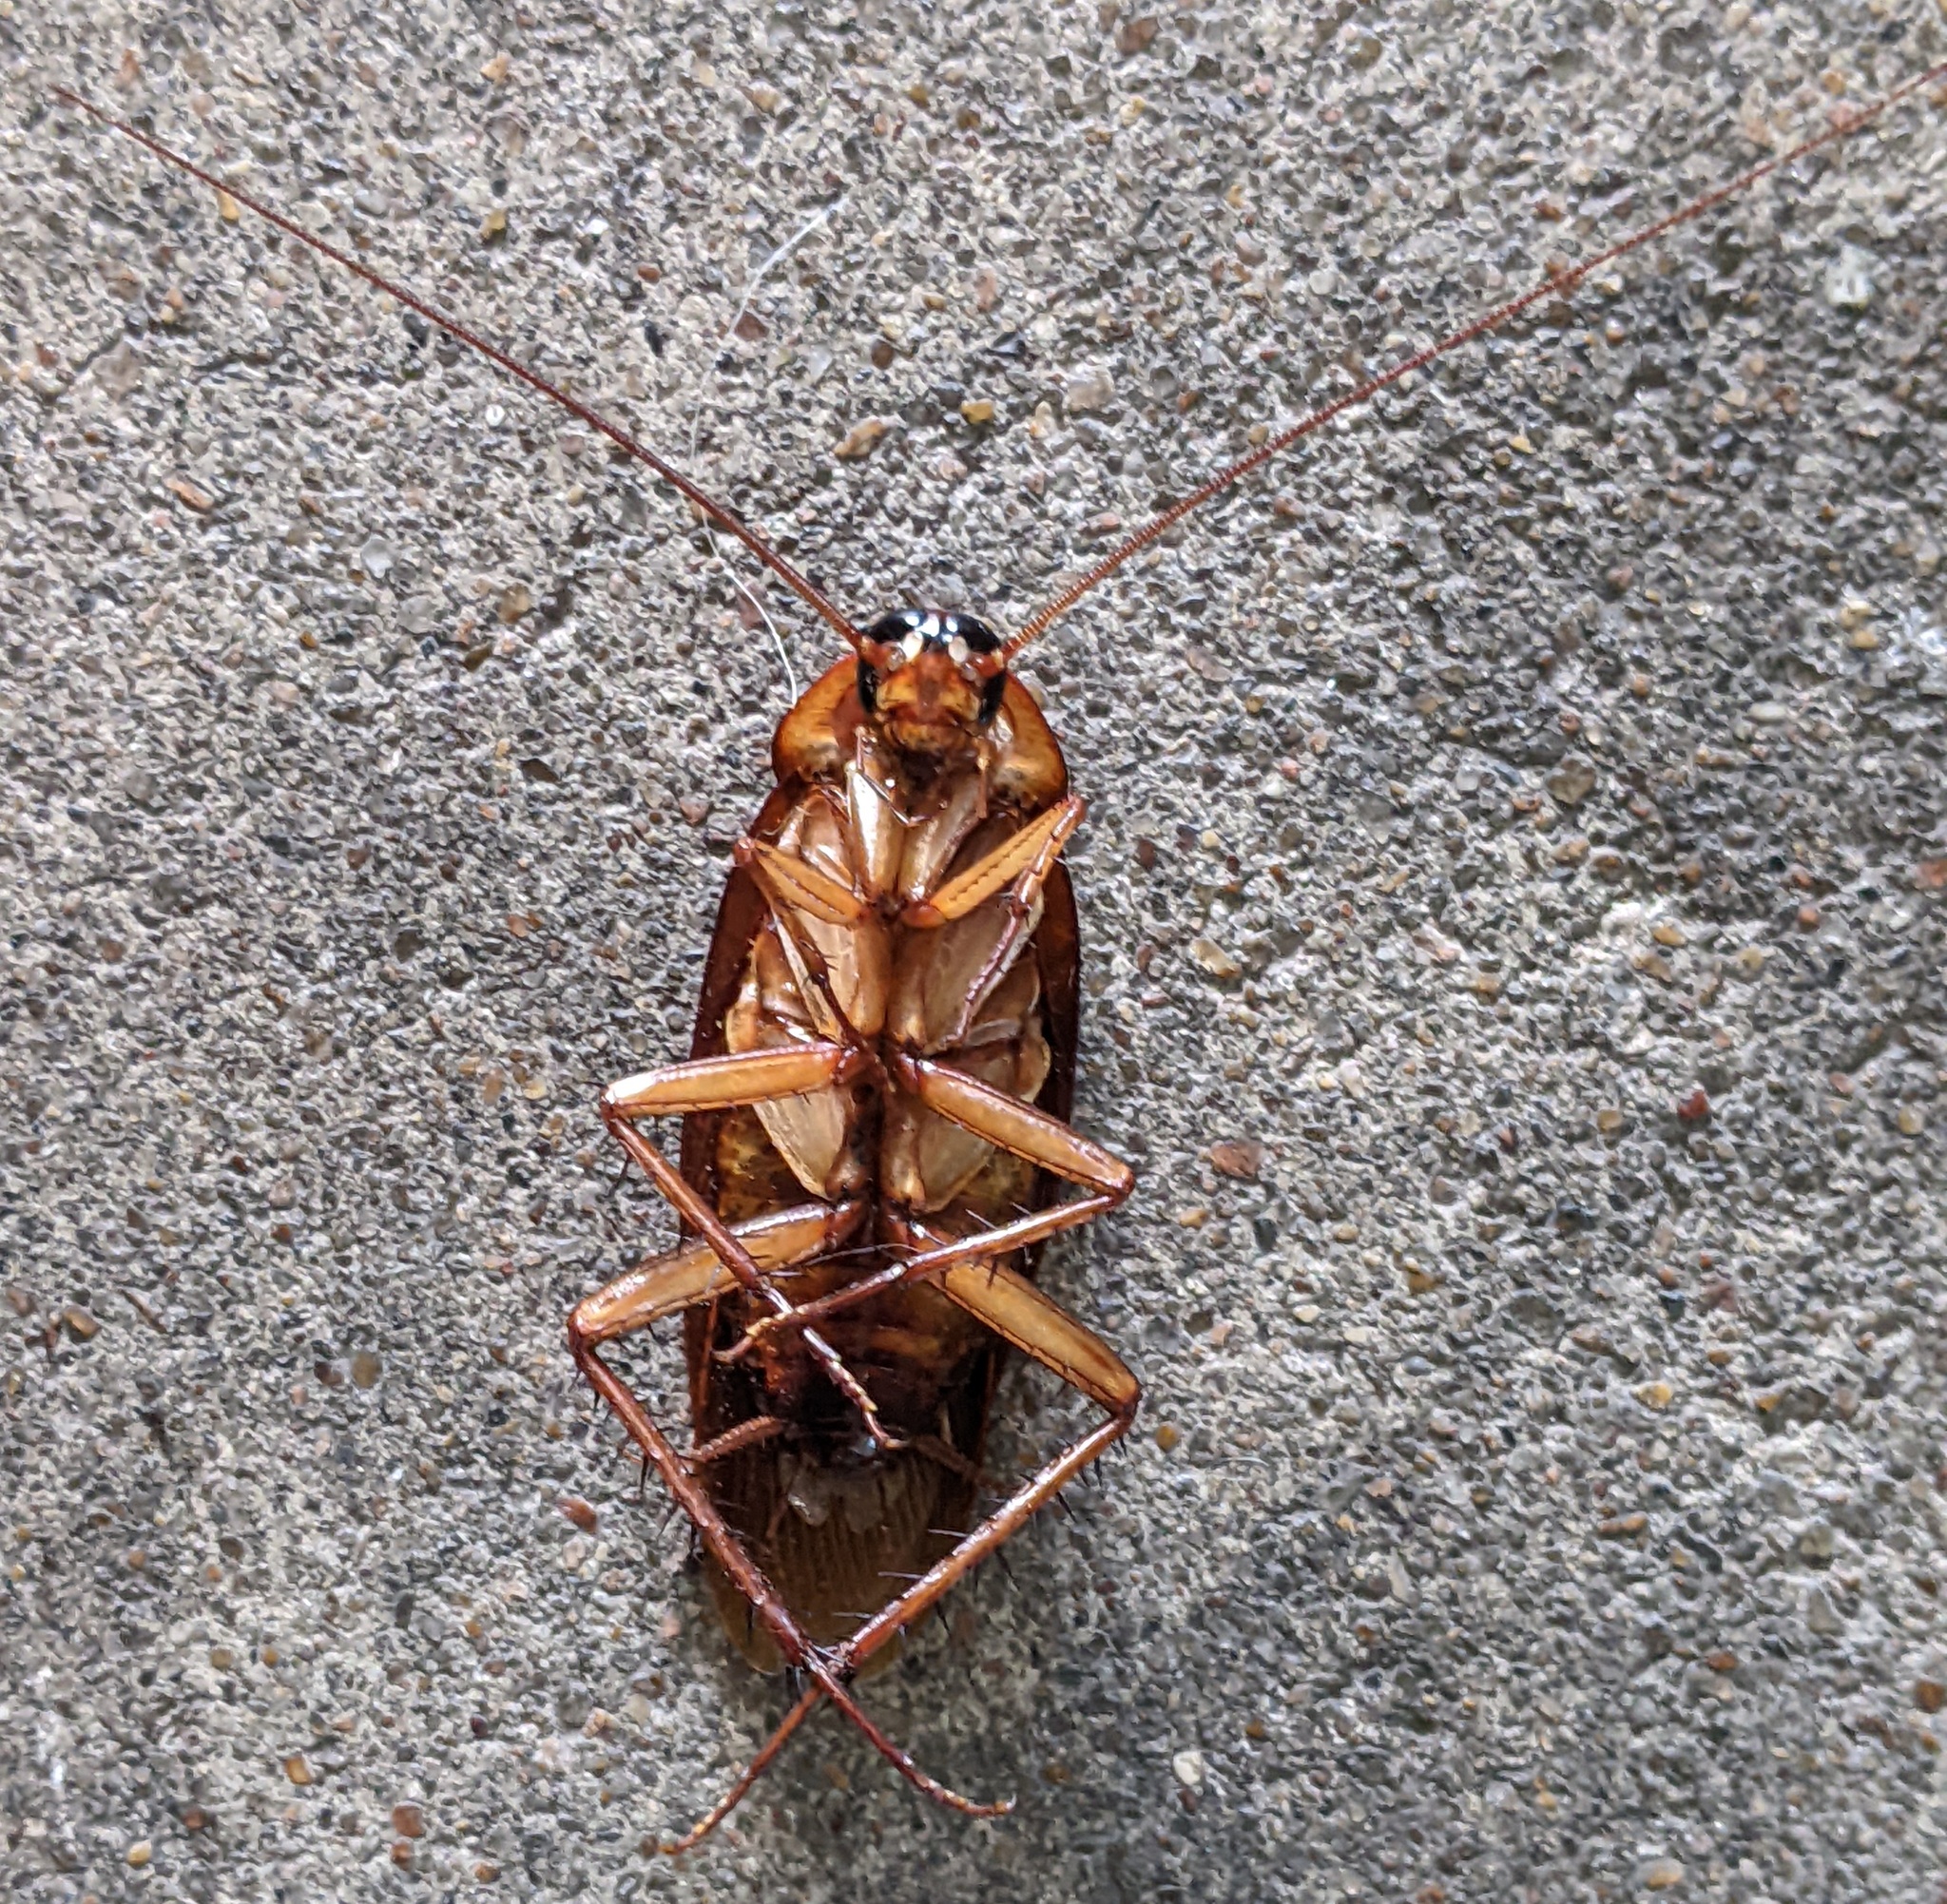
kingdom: Animalia
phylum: Arthropoda
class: Insecta
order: Blattodea
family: Blattidae
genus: Periplaneta
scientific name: Periplaneta americana
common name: American cockroach
